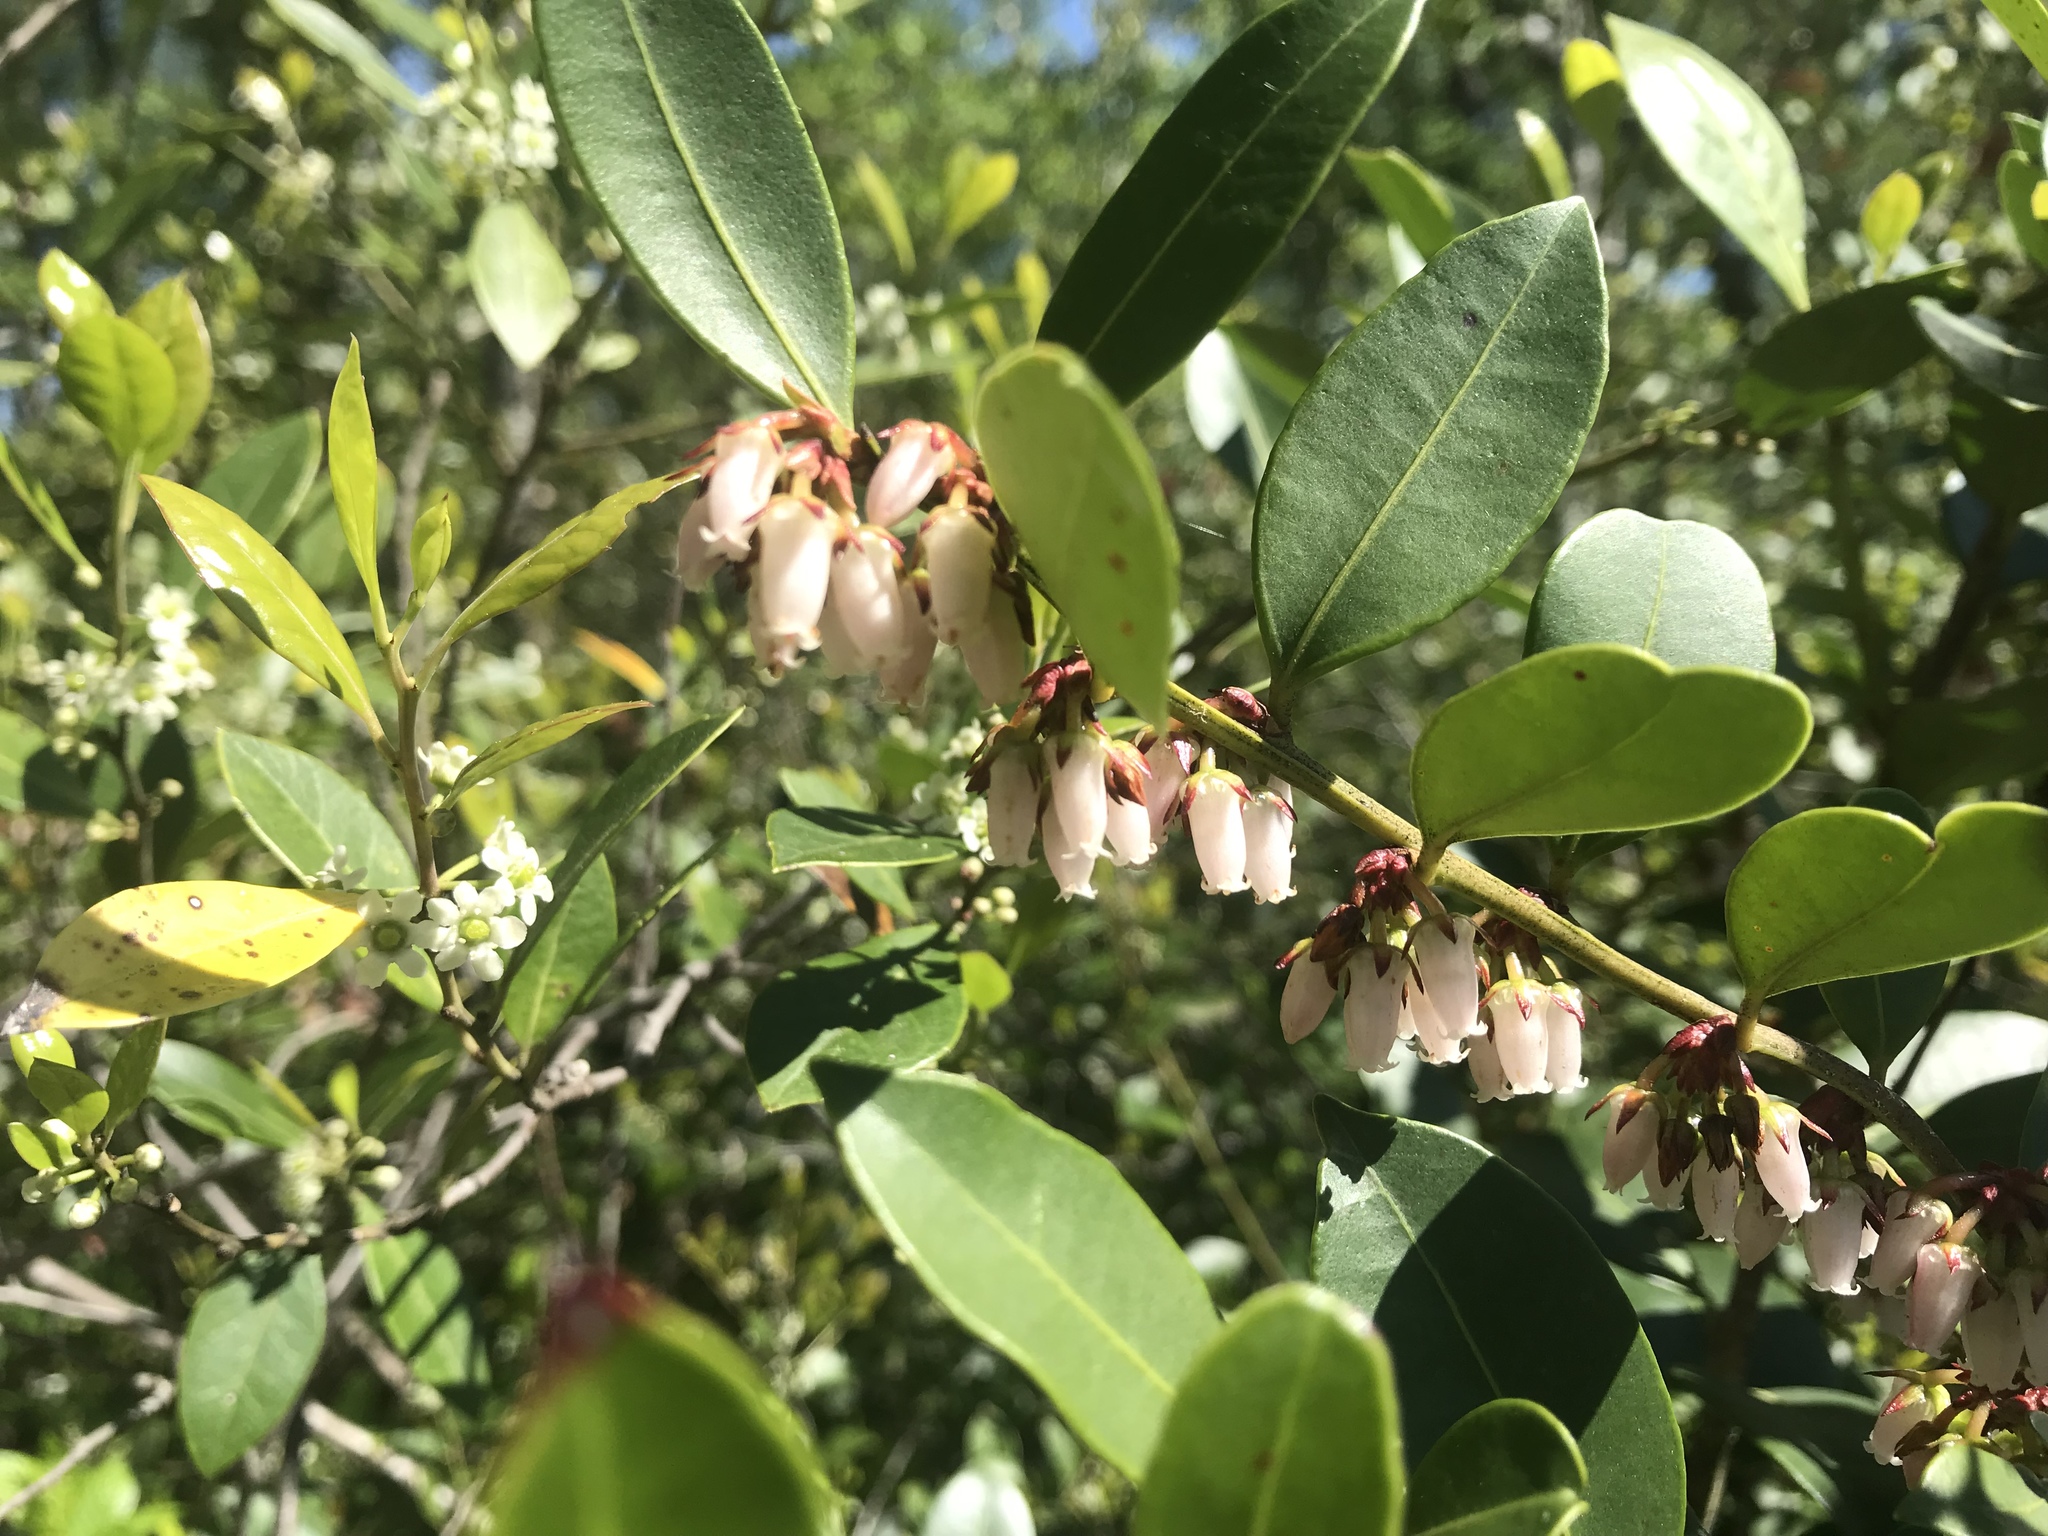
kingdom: Plantae
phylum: Tracheophyta
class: Magnoliopsida
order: Ericales
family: Ericaceae
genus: Lyonia
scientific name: Lyonia lucida
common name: Fetterbush
